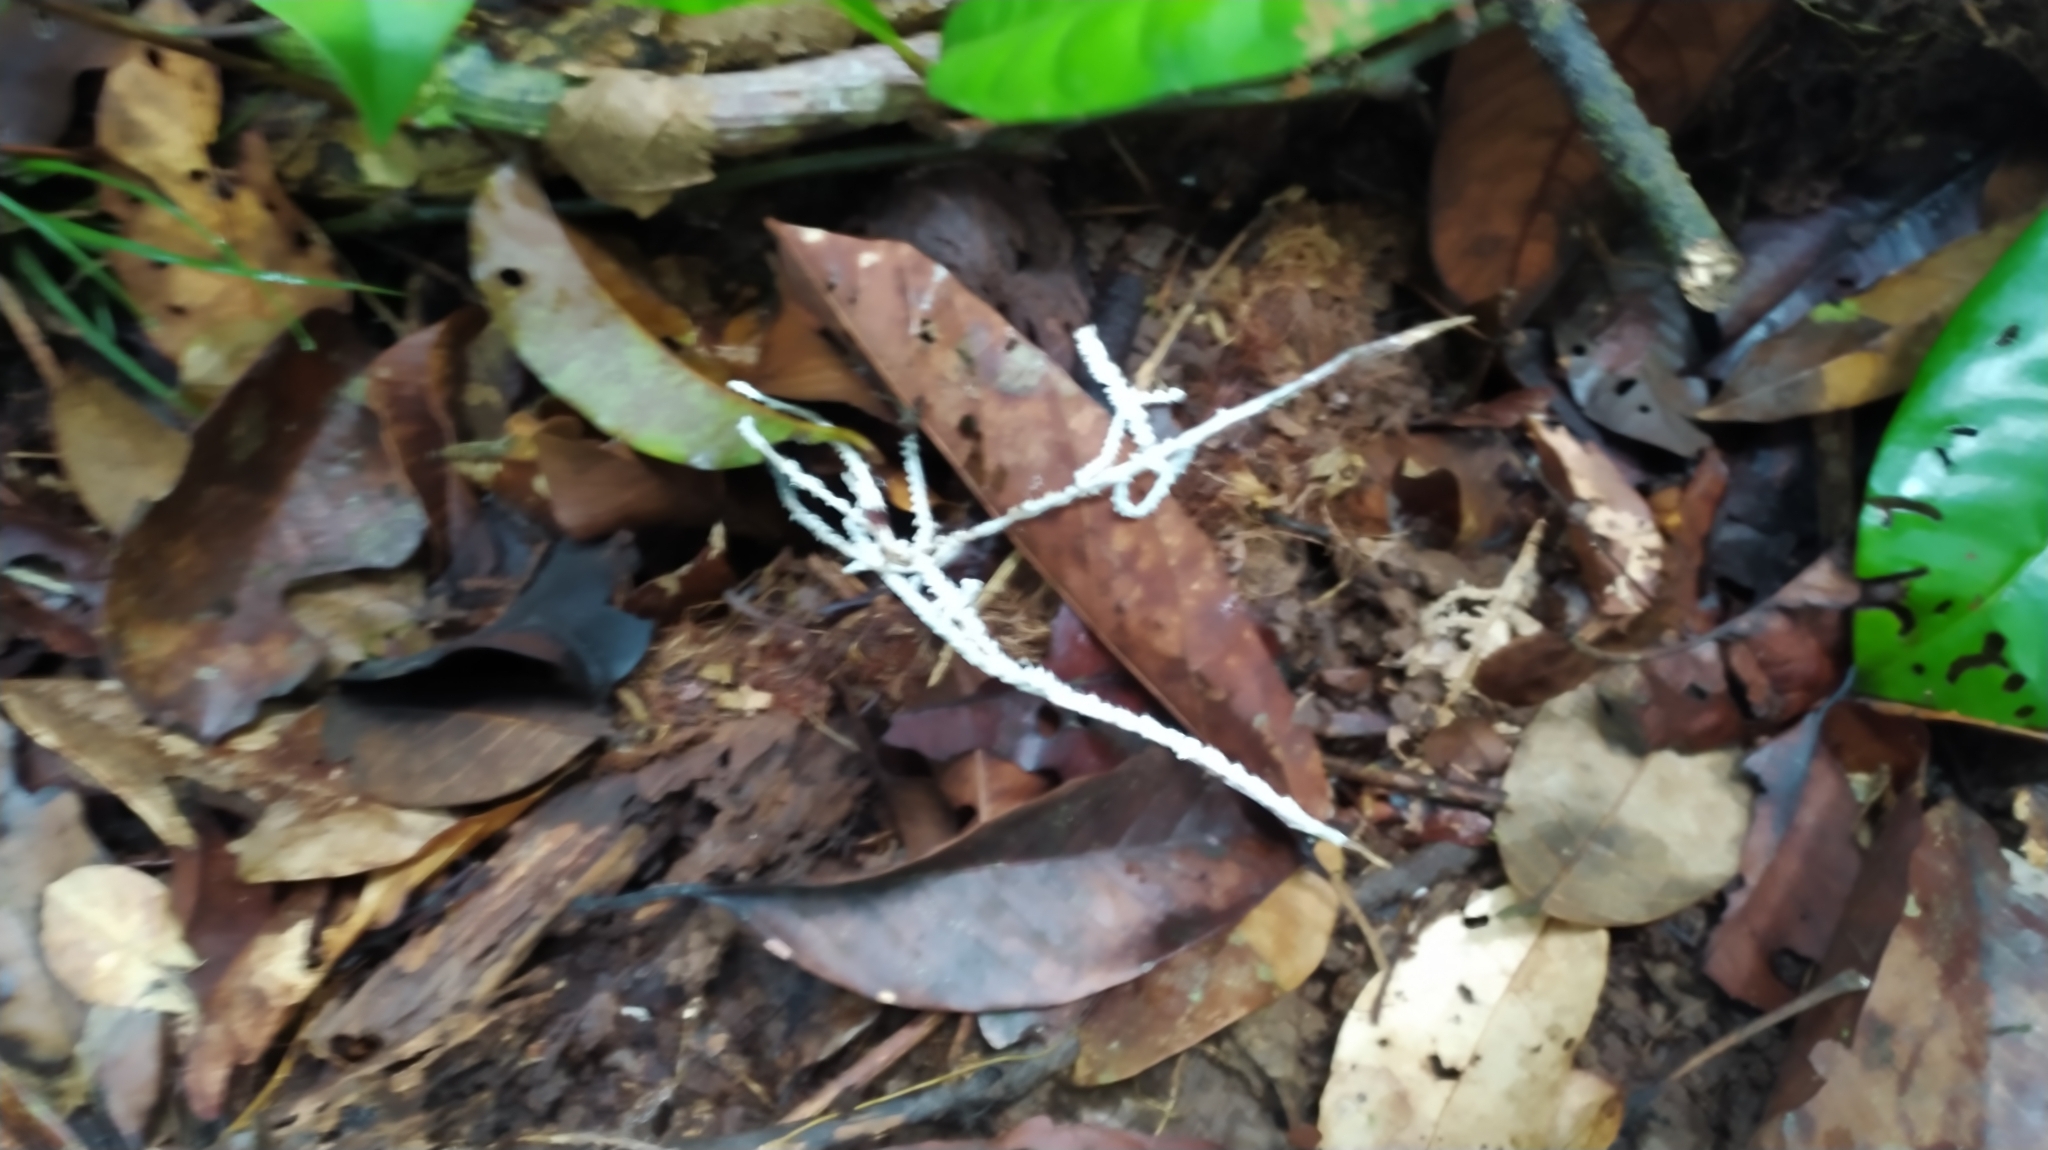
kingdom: Fungi
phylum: Basidiomycota
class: Agaricomycetes
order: Agaricales
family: Marasmiaceae
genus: Brunneocorticium
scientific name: Brunneocorticium corynecarpon
